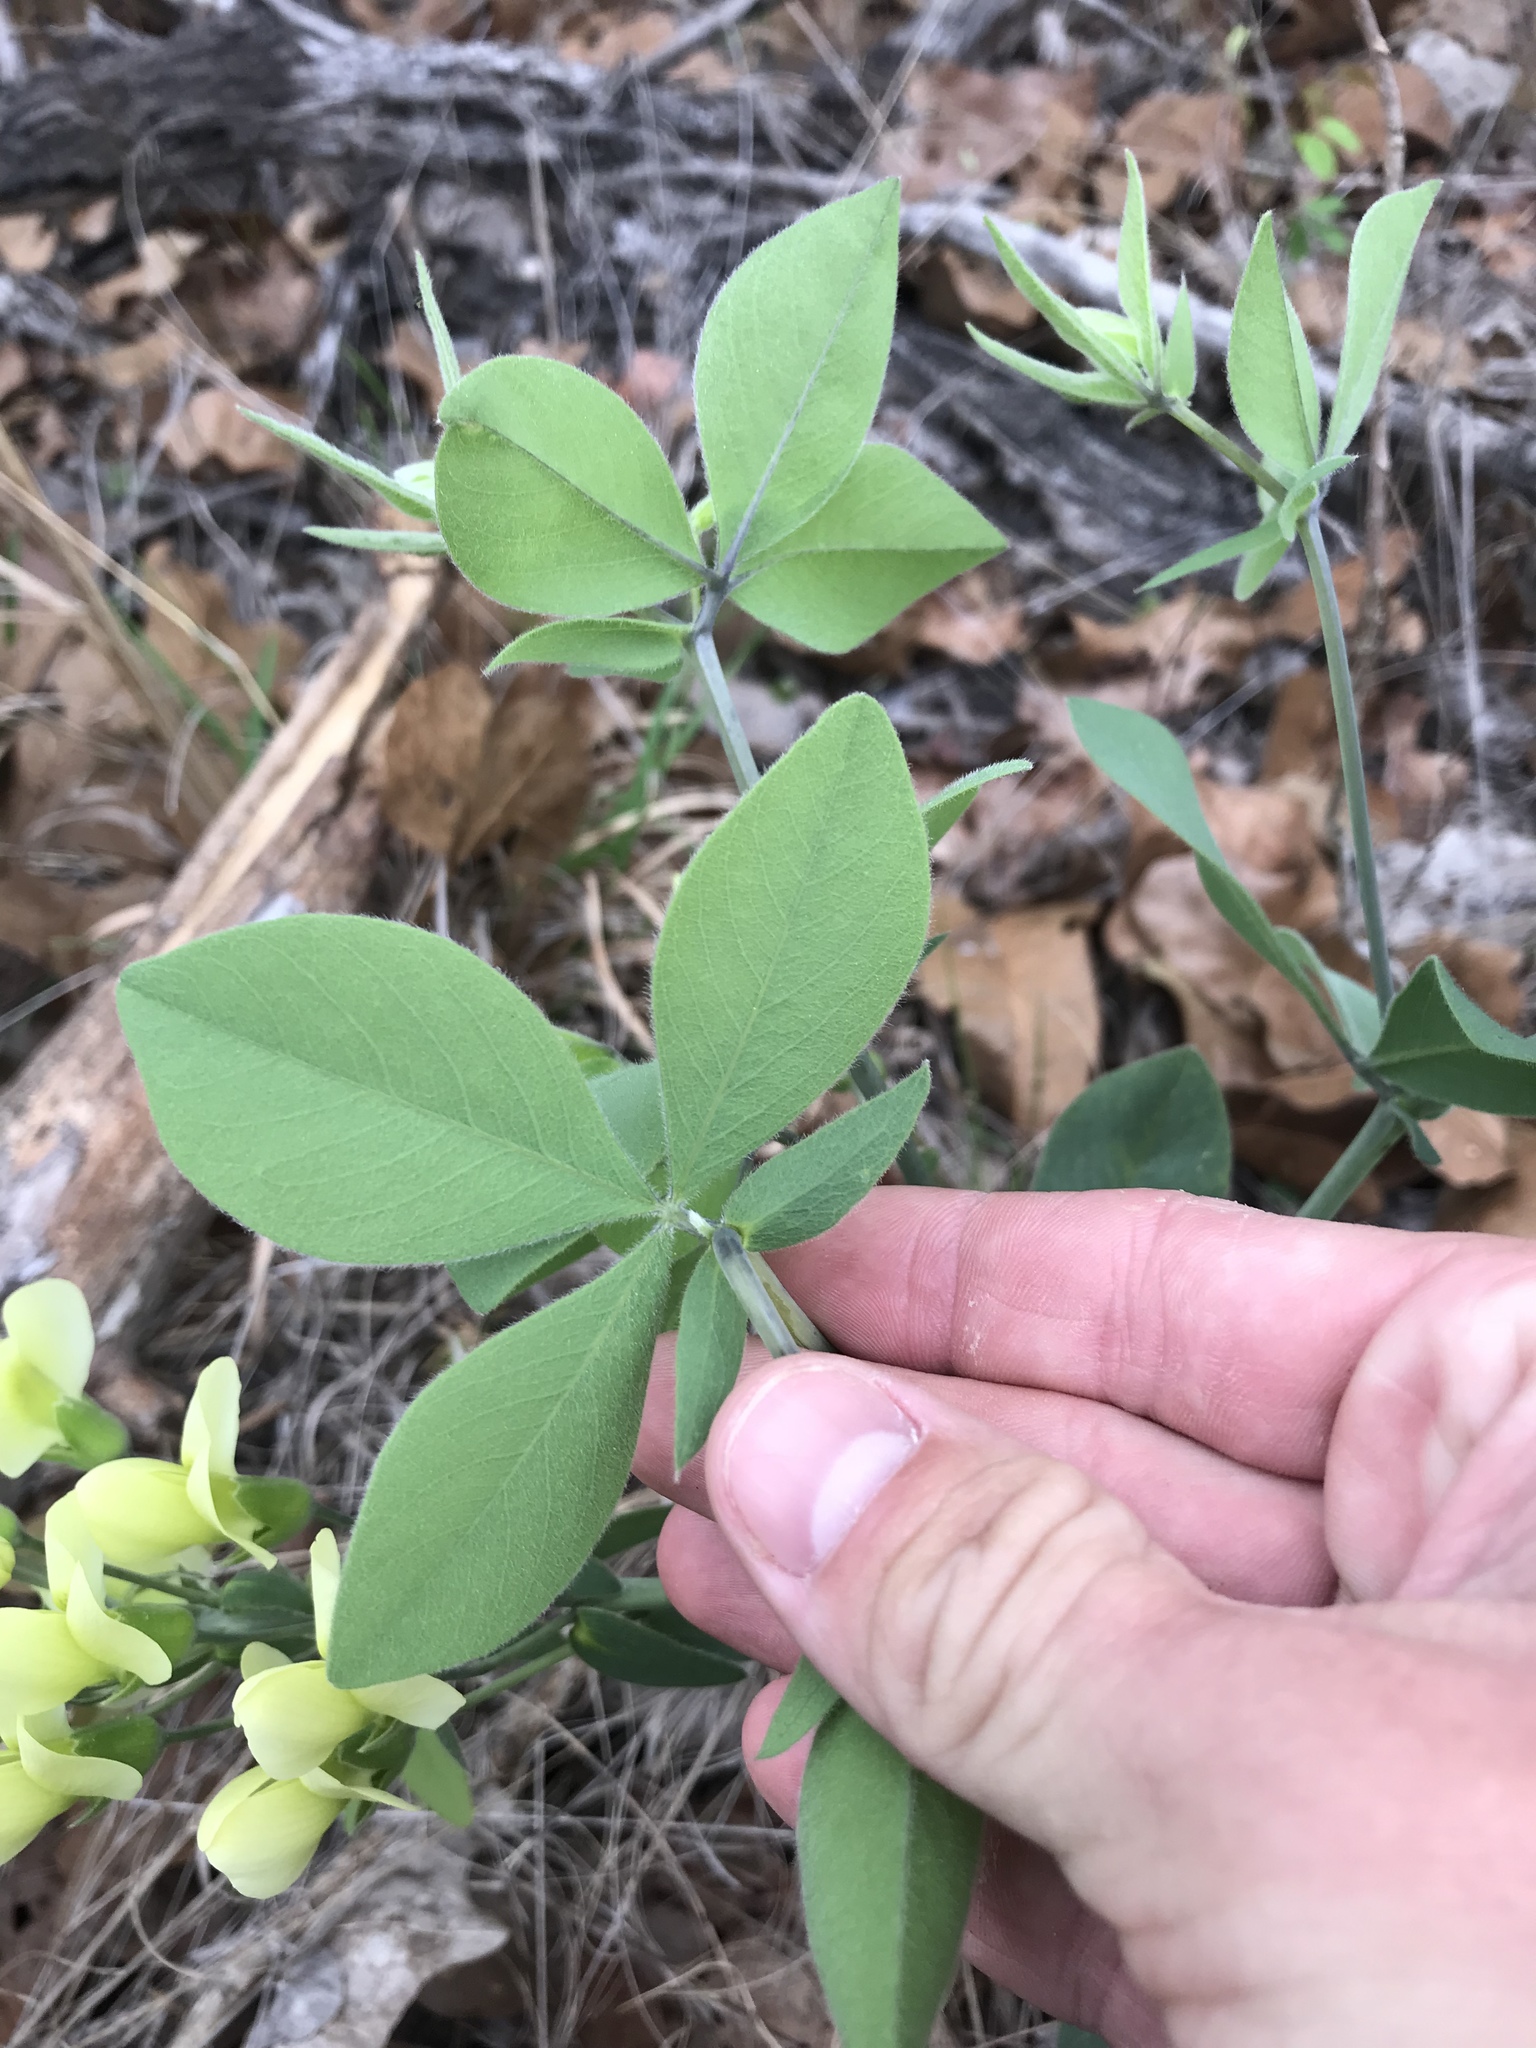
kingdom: Plantae
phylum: Tracheophyta
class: Magnoliopsida
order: Fabales
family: Fabaceae
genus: Baptisia
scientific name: Baptisia bracteata
